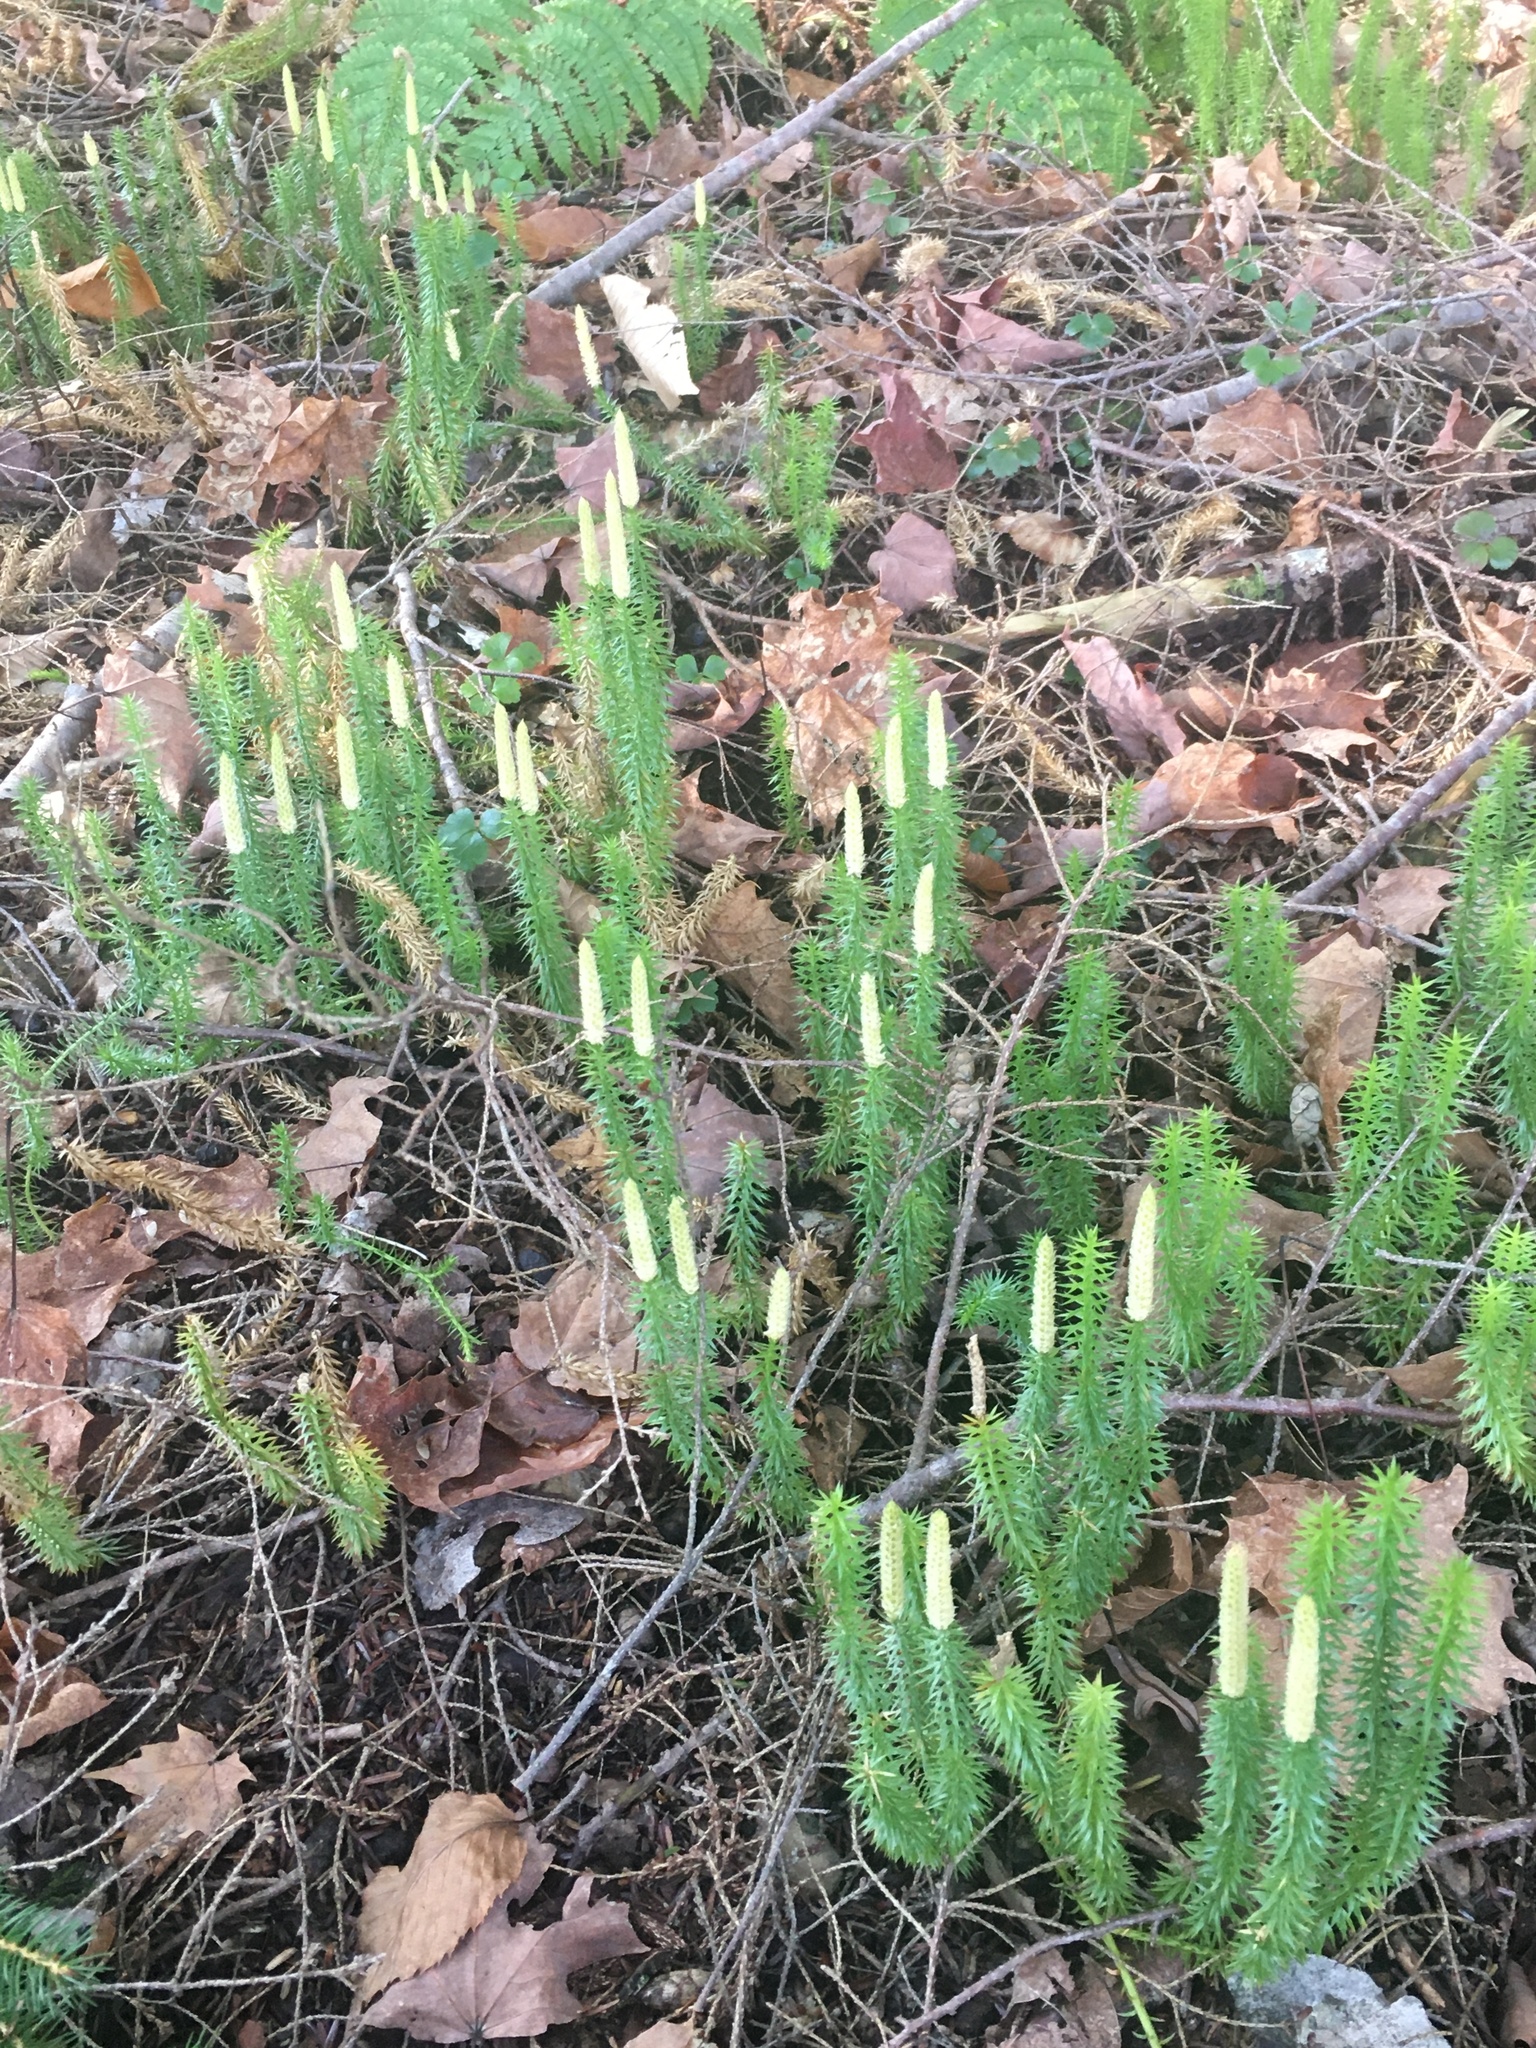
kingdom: Plantae
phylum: Tracheophyta
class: Lycopodiopsida
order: Lycopodiales
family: Lycopodiaceae
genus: Spinulum
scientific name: Spinulum annotinum
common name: Interrupted club-moss
